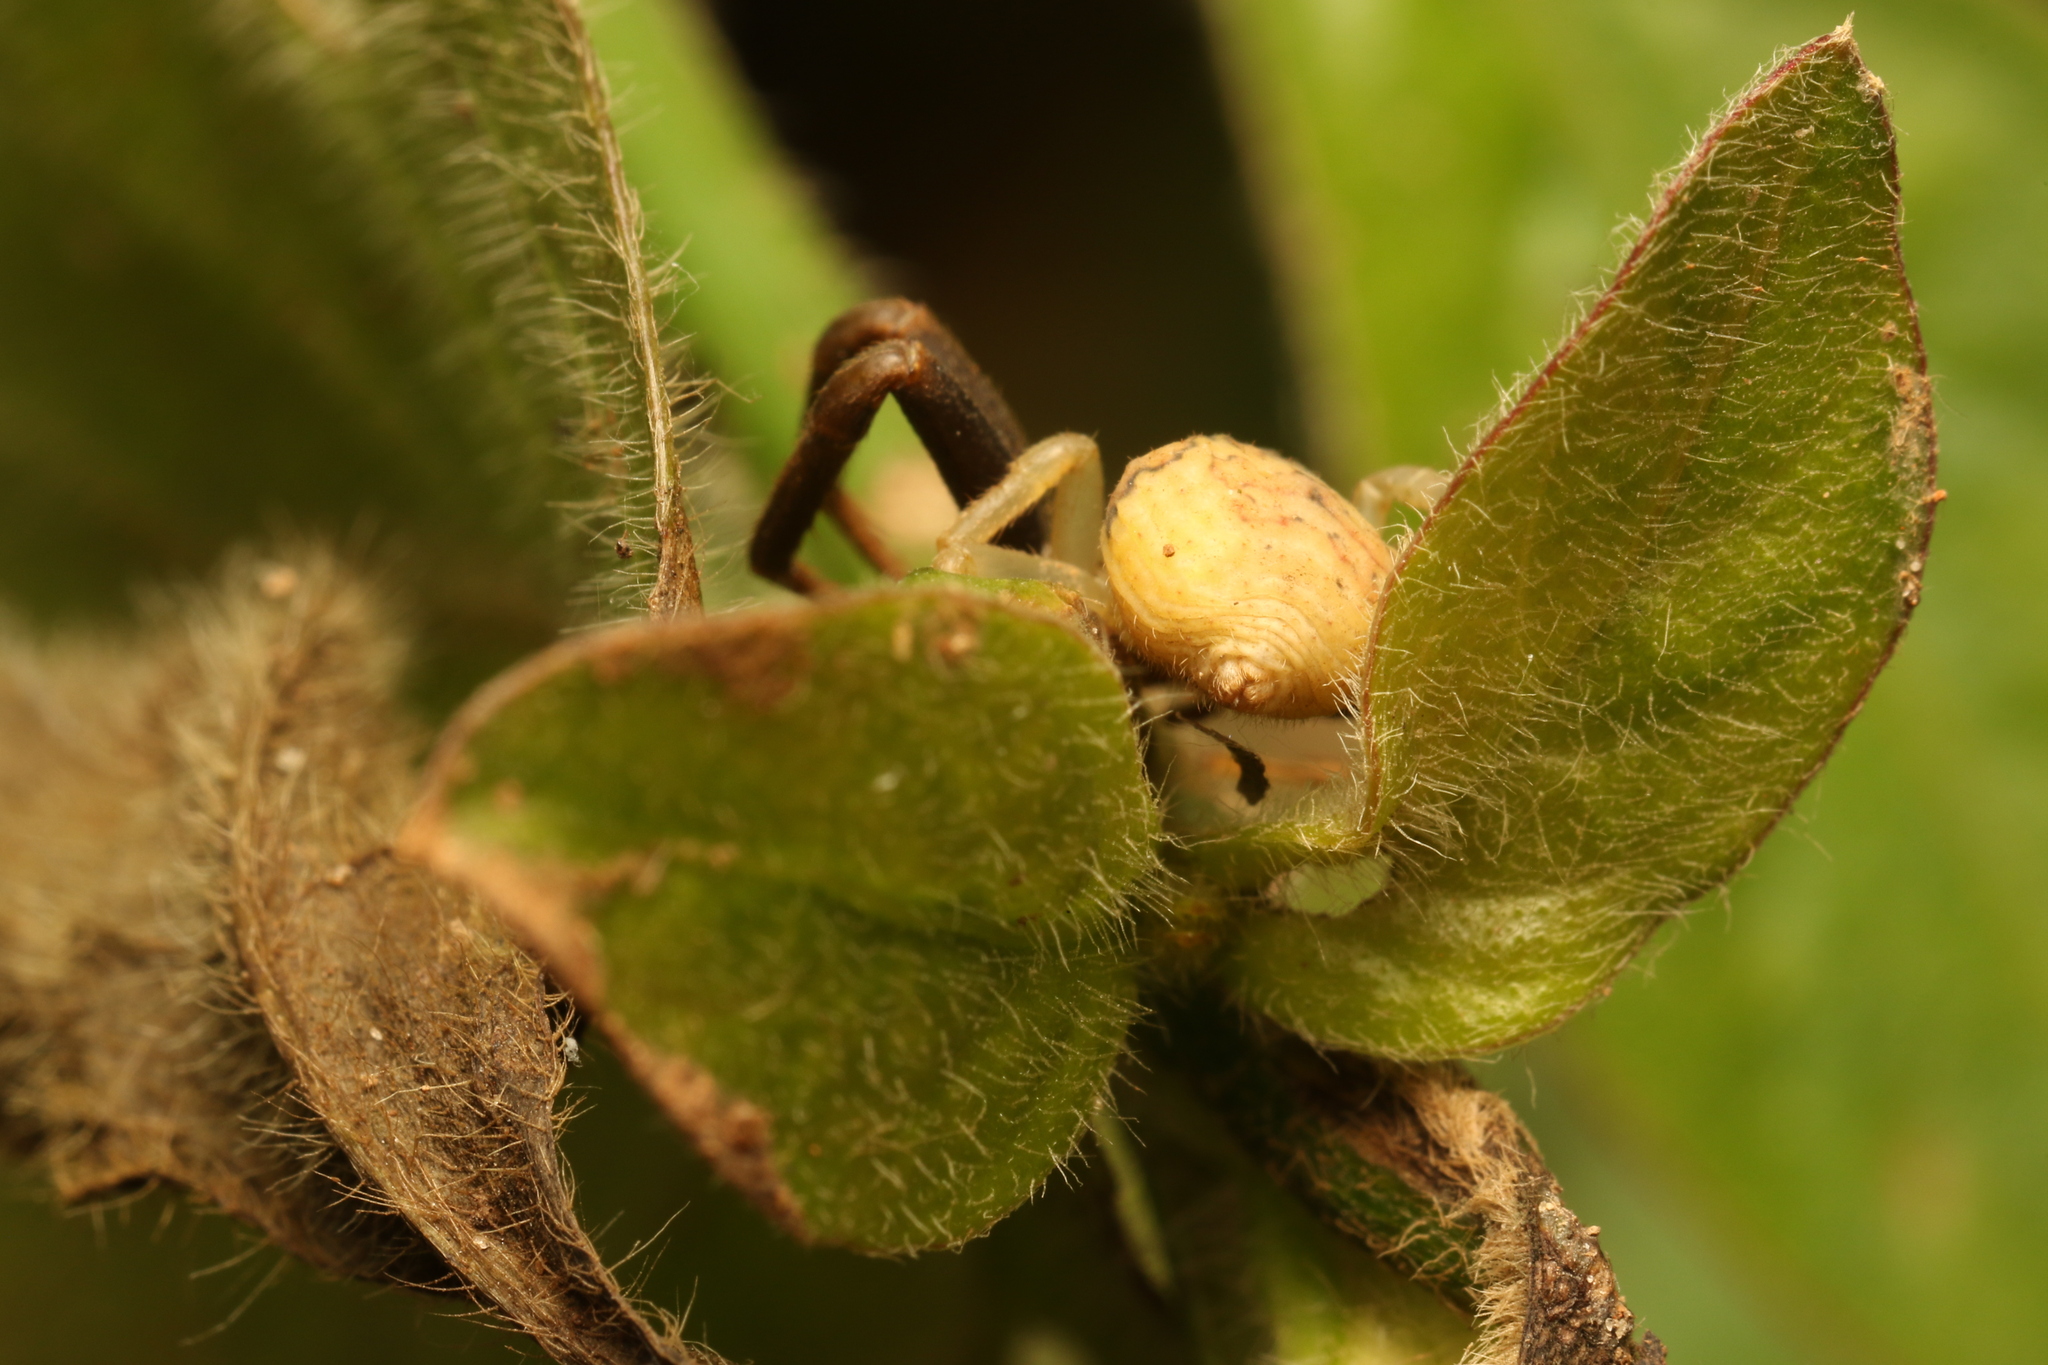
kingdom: Animalia
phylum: Arthropoda
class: Arachnida
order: Araneae
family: Thomisidae
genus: Runcinioides
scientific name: Runcinioides litteratus
